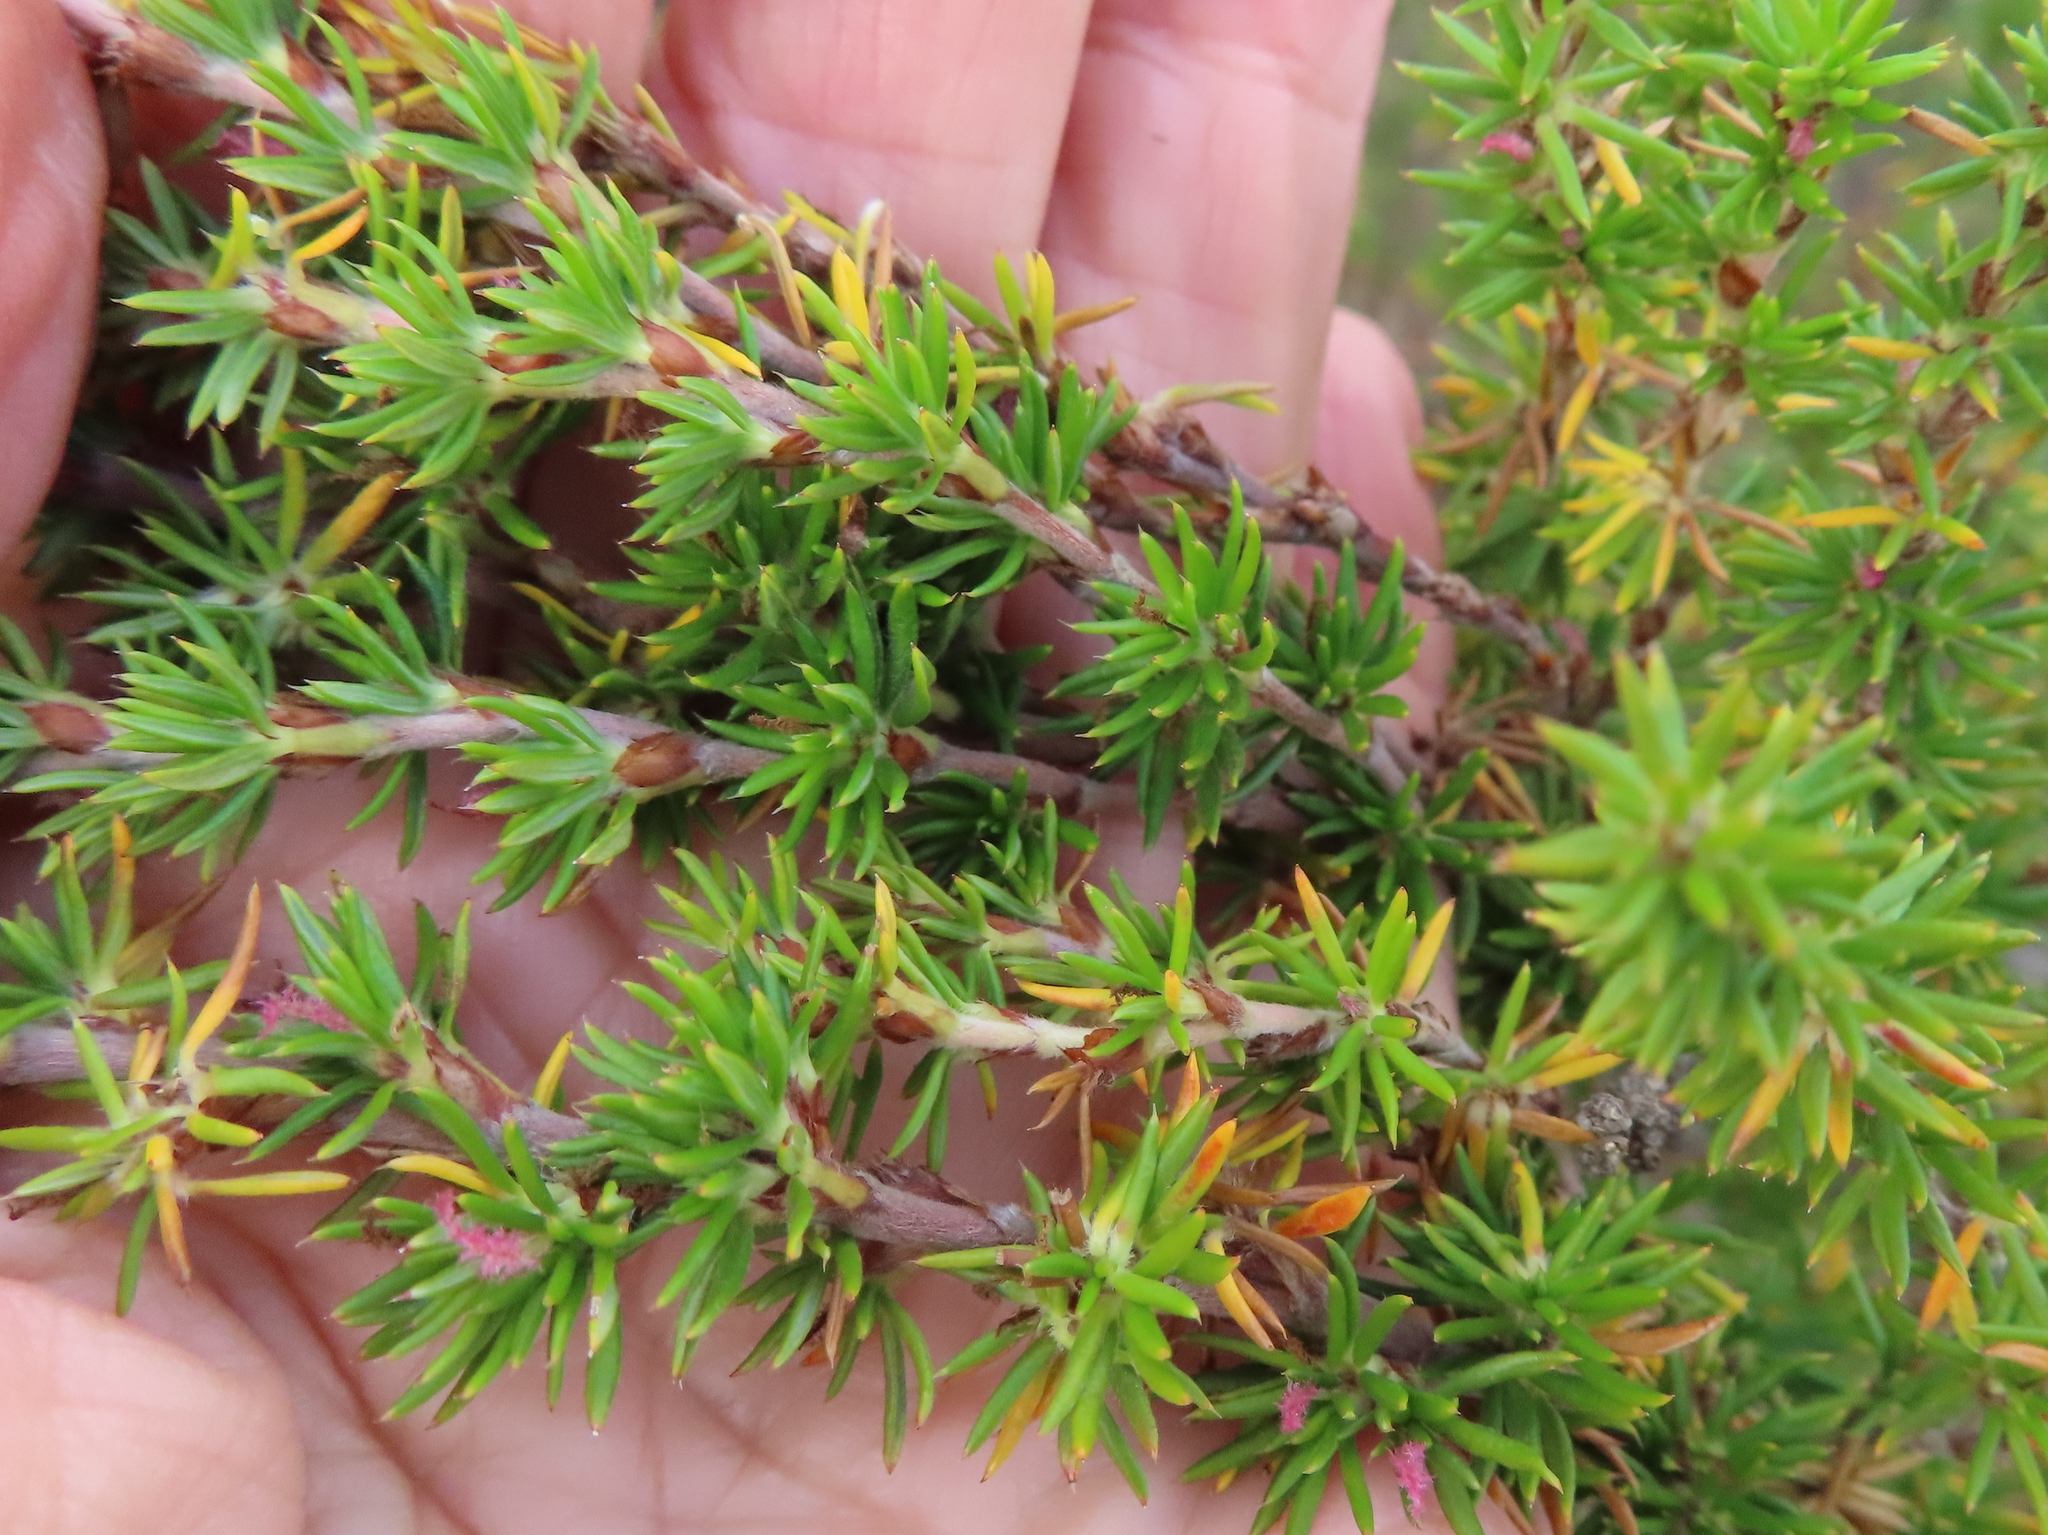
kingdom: Plantae
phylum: Tracheophyta
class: Magnoliopsida
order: Rosales
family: Rosaceae
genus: Cliffortia
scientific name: Cliffortia stricta
